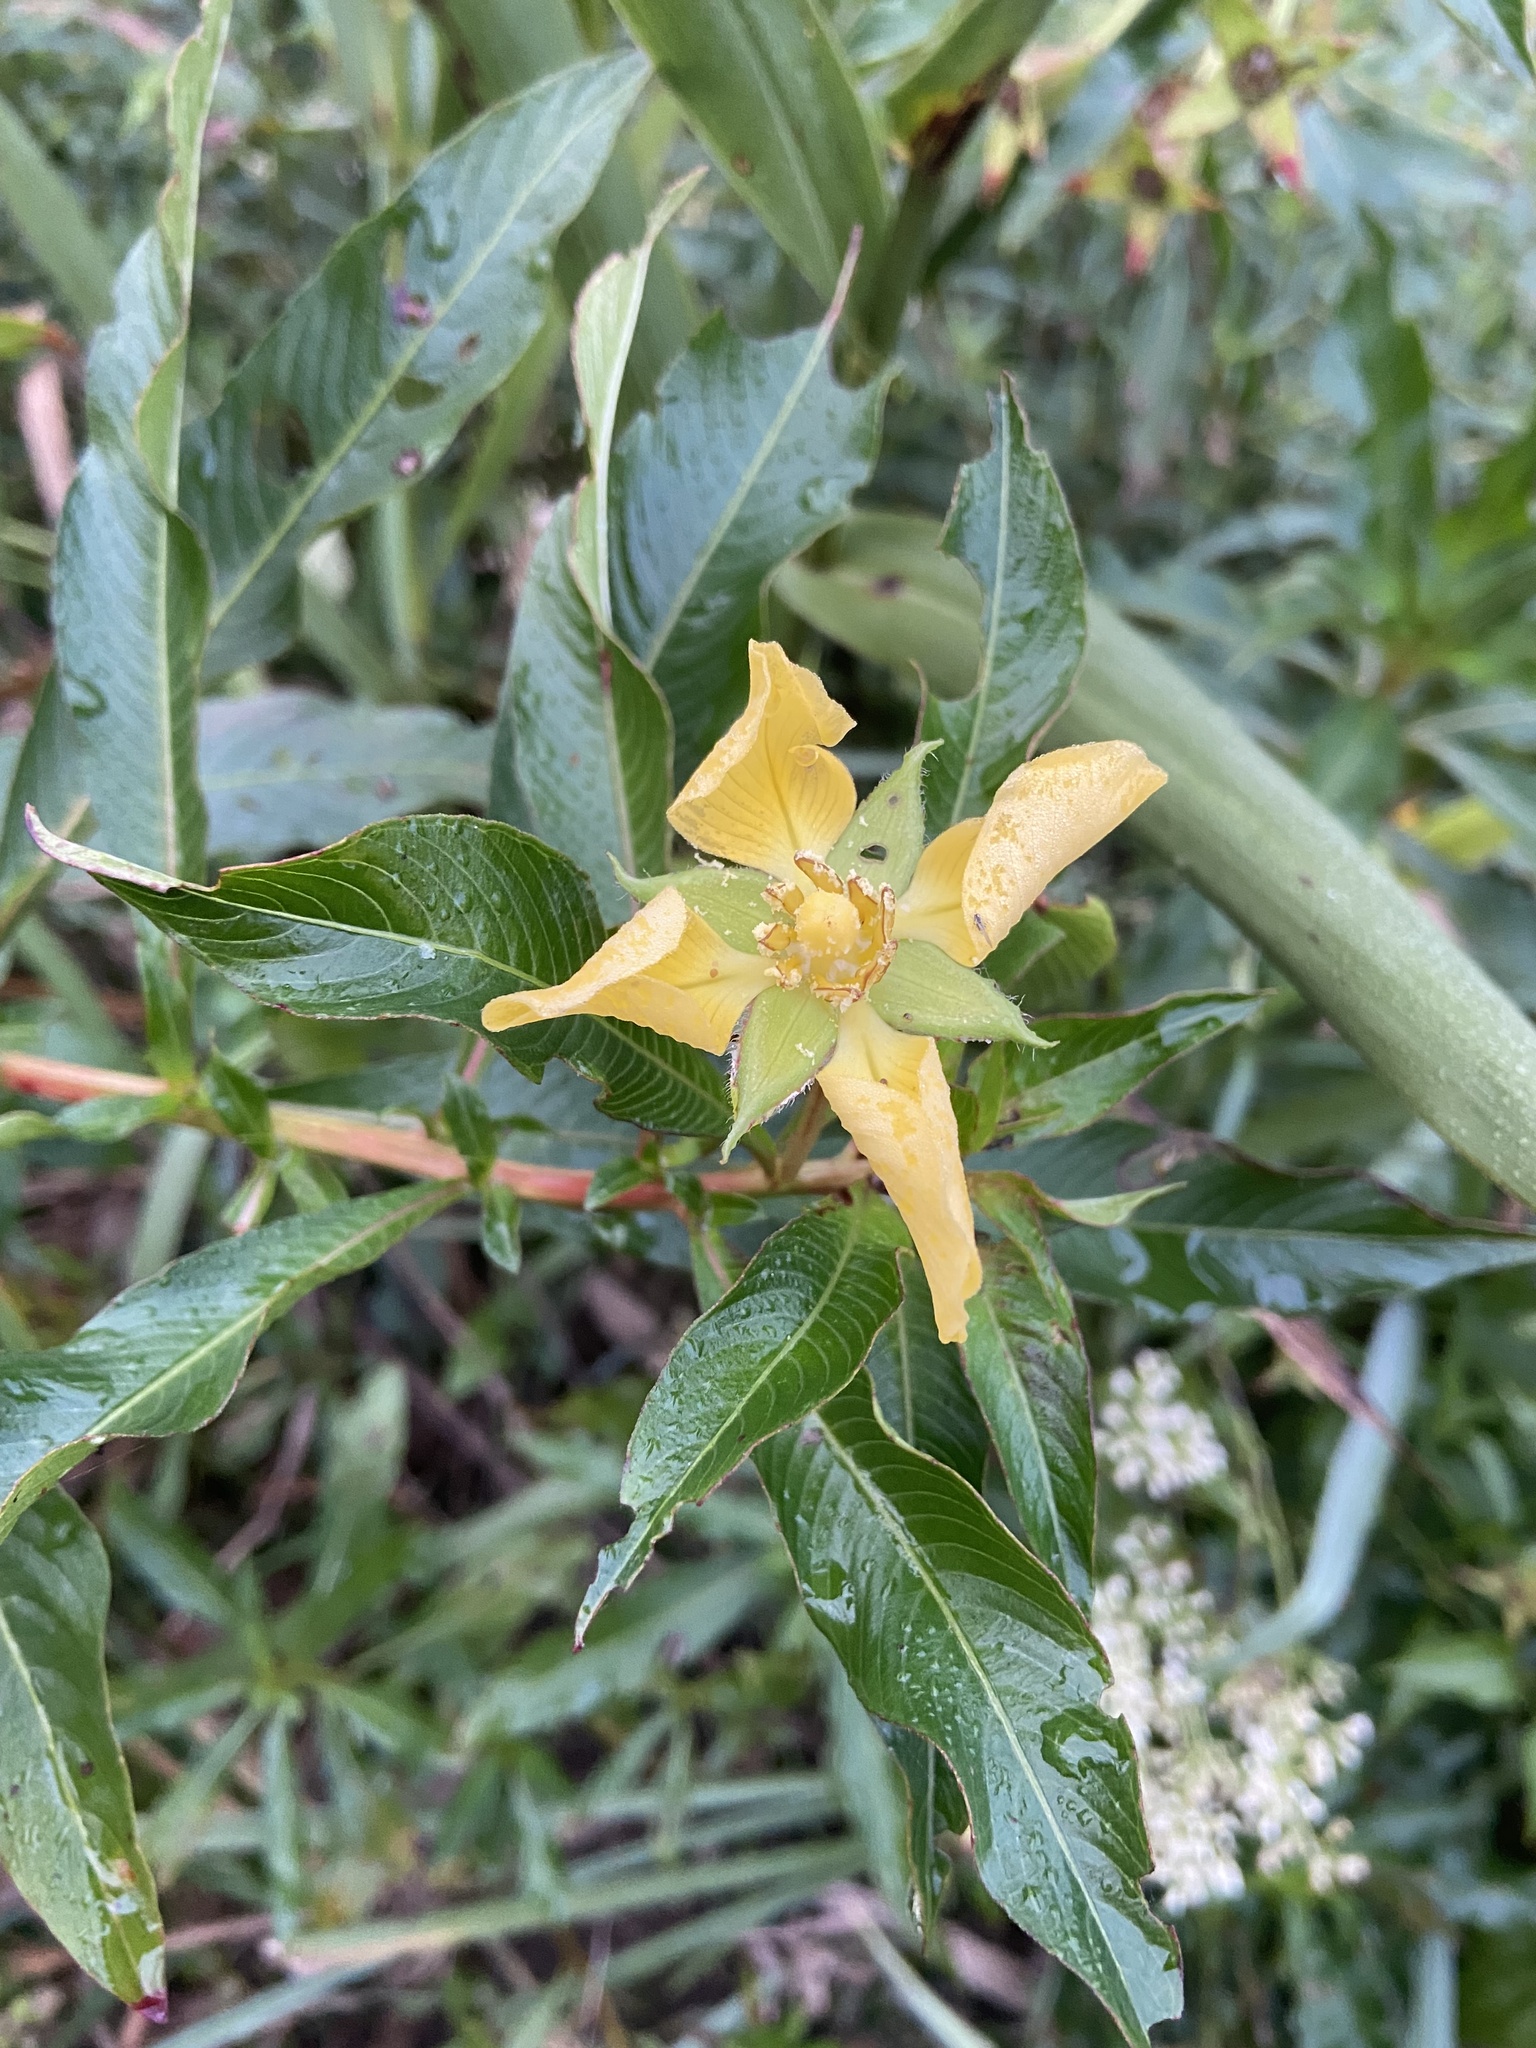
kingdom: Plantae
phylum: Tracheophyta
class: Magnoliopsida
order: Myrtales
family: Onagraceae
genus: Ludwigia
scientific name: Ludwigia elegans
